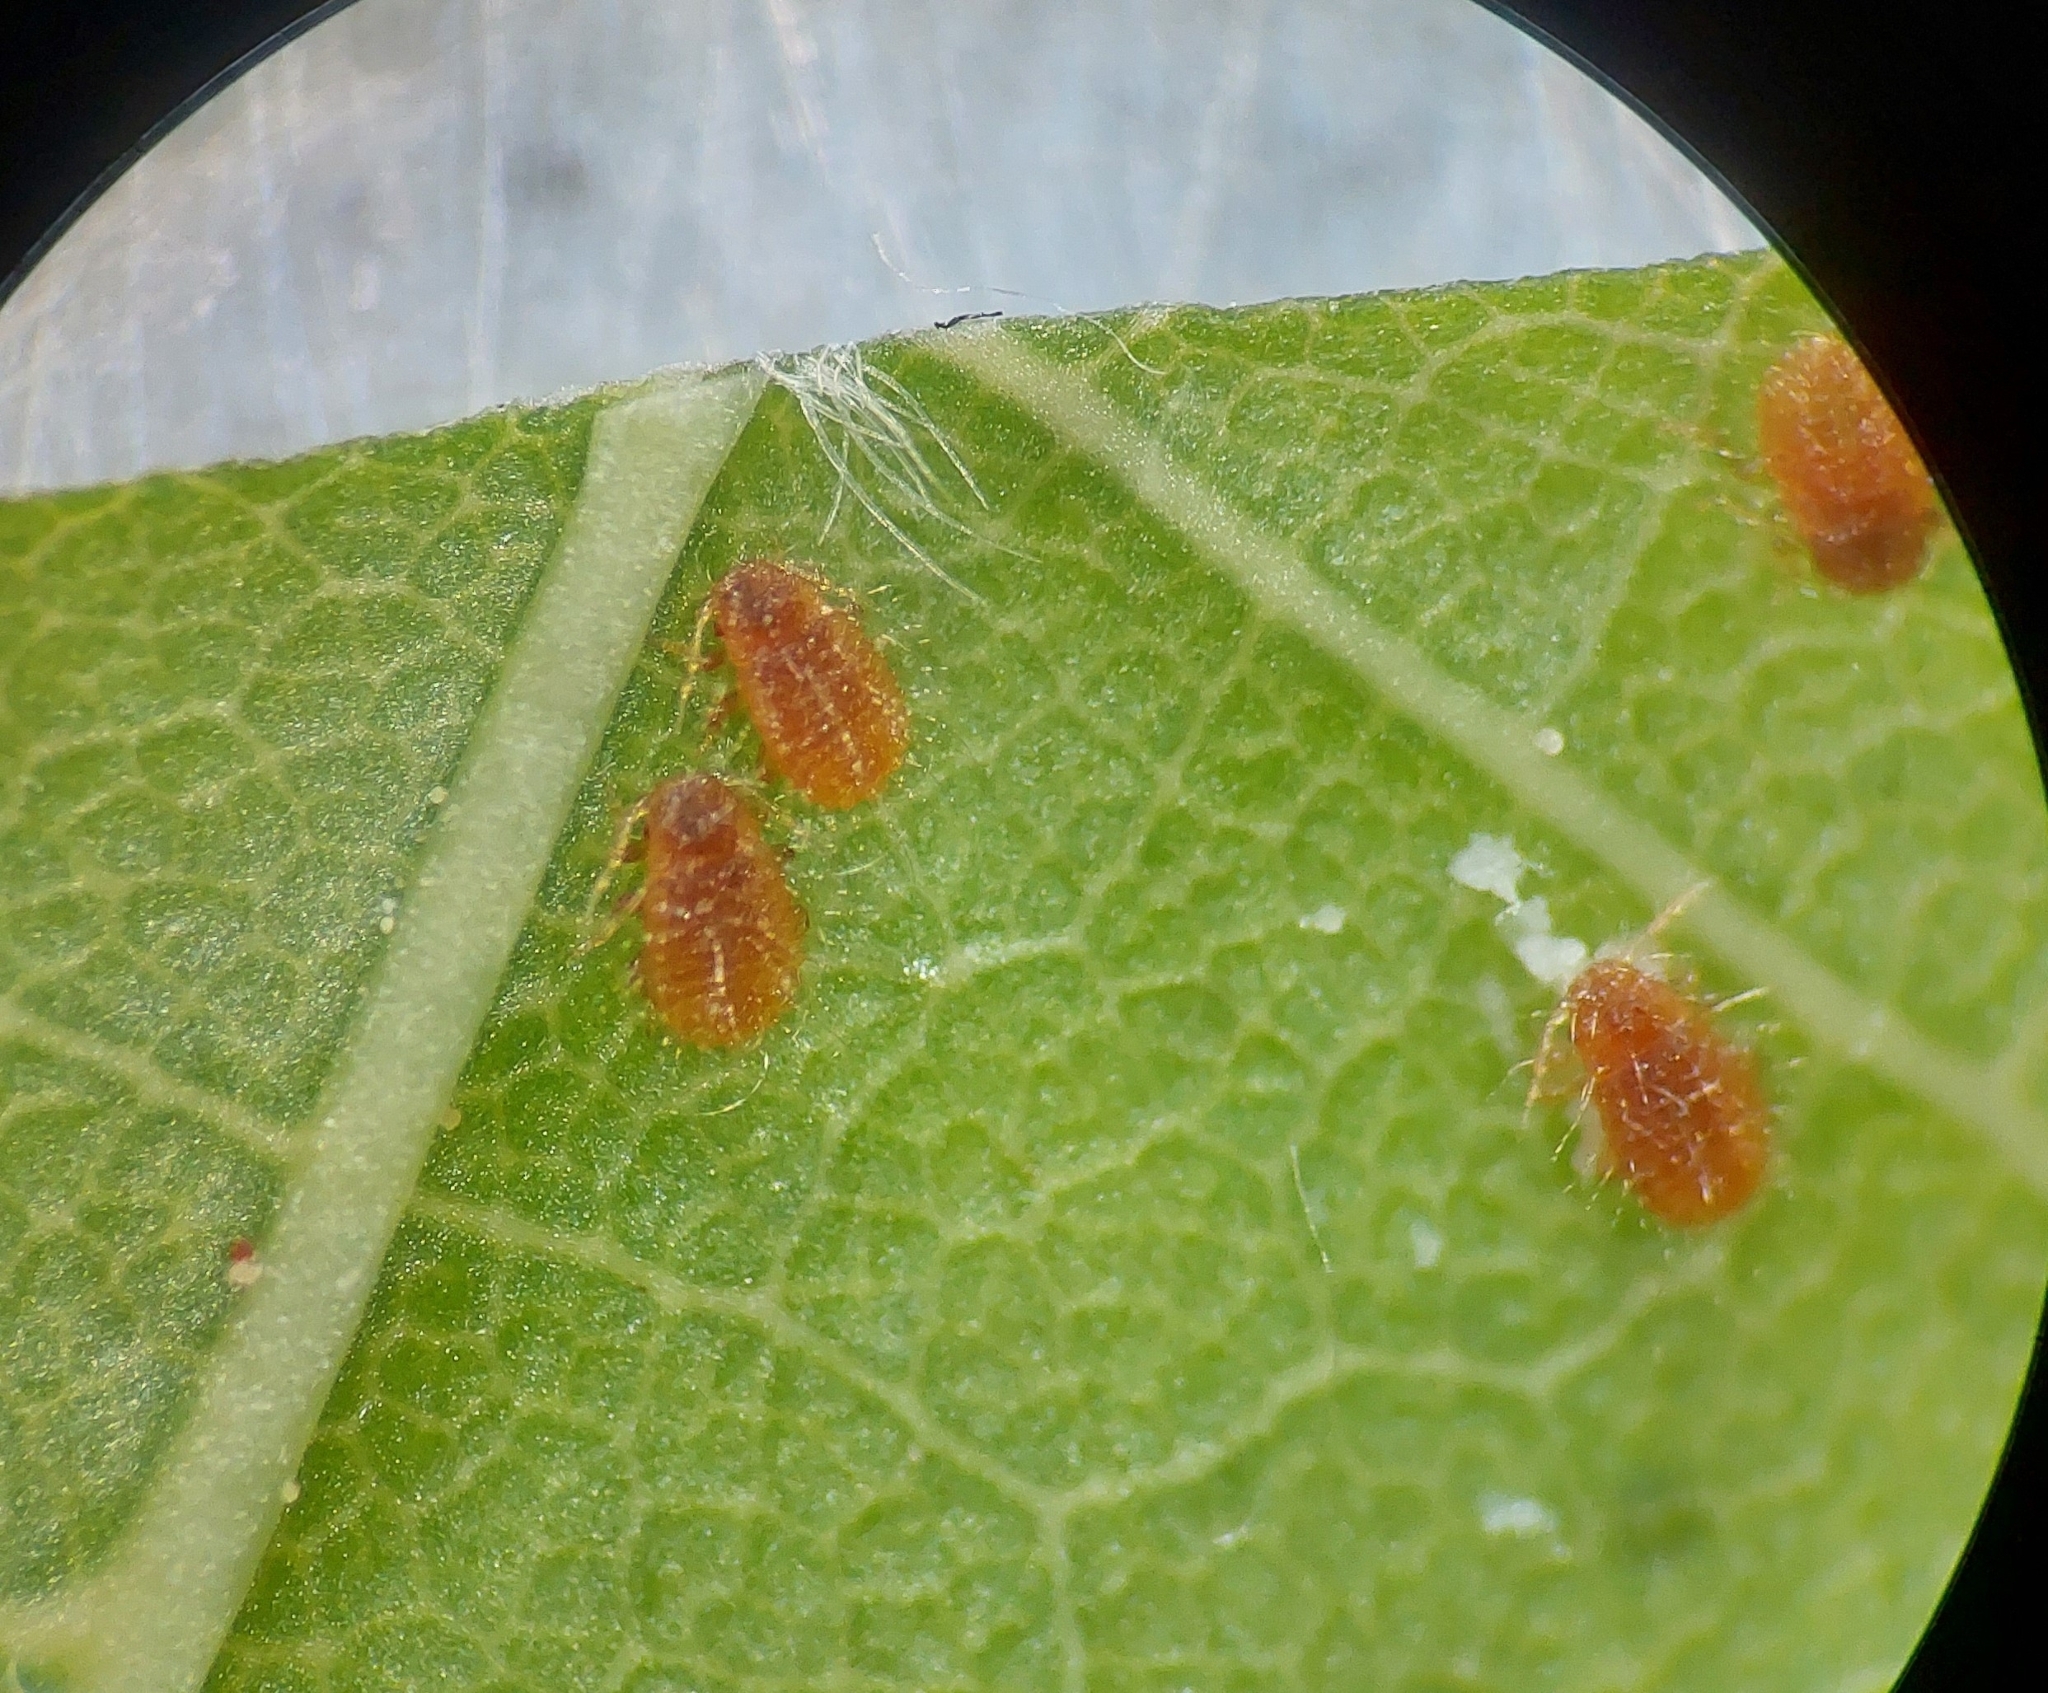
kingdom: Animalia
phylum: Arthropoda
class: Insecta
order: Hemiptera
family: Aphididae
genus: Periphyllus
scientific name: Periphyllus acericola
